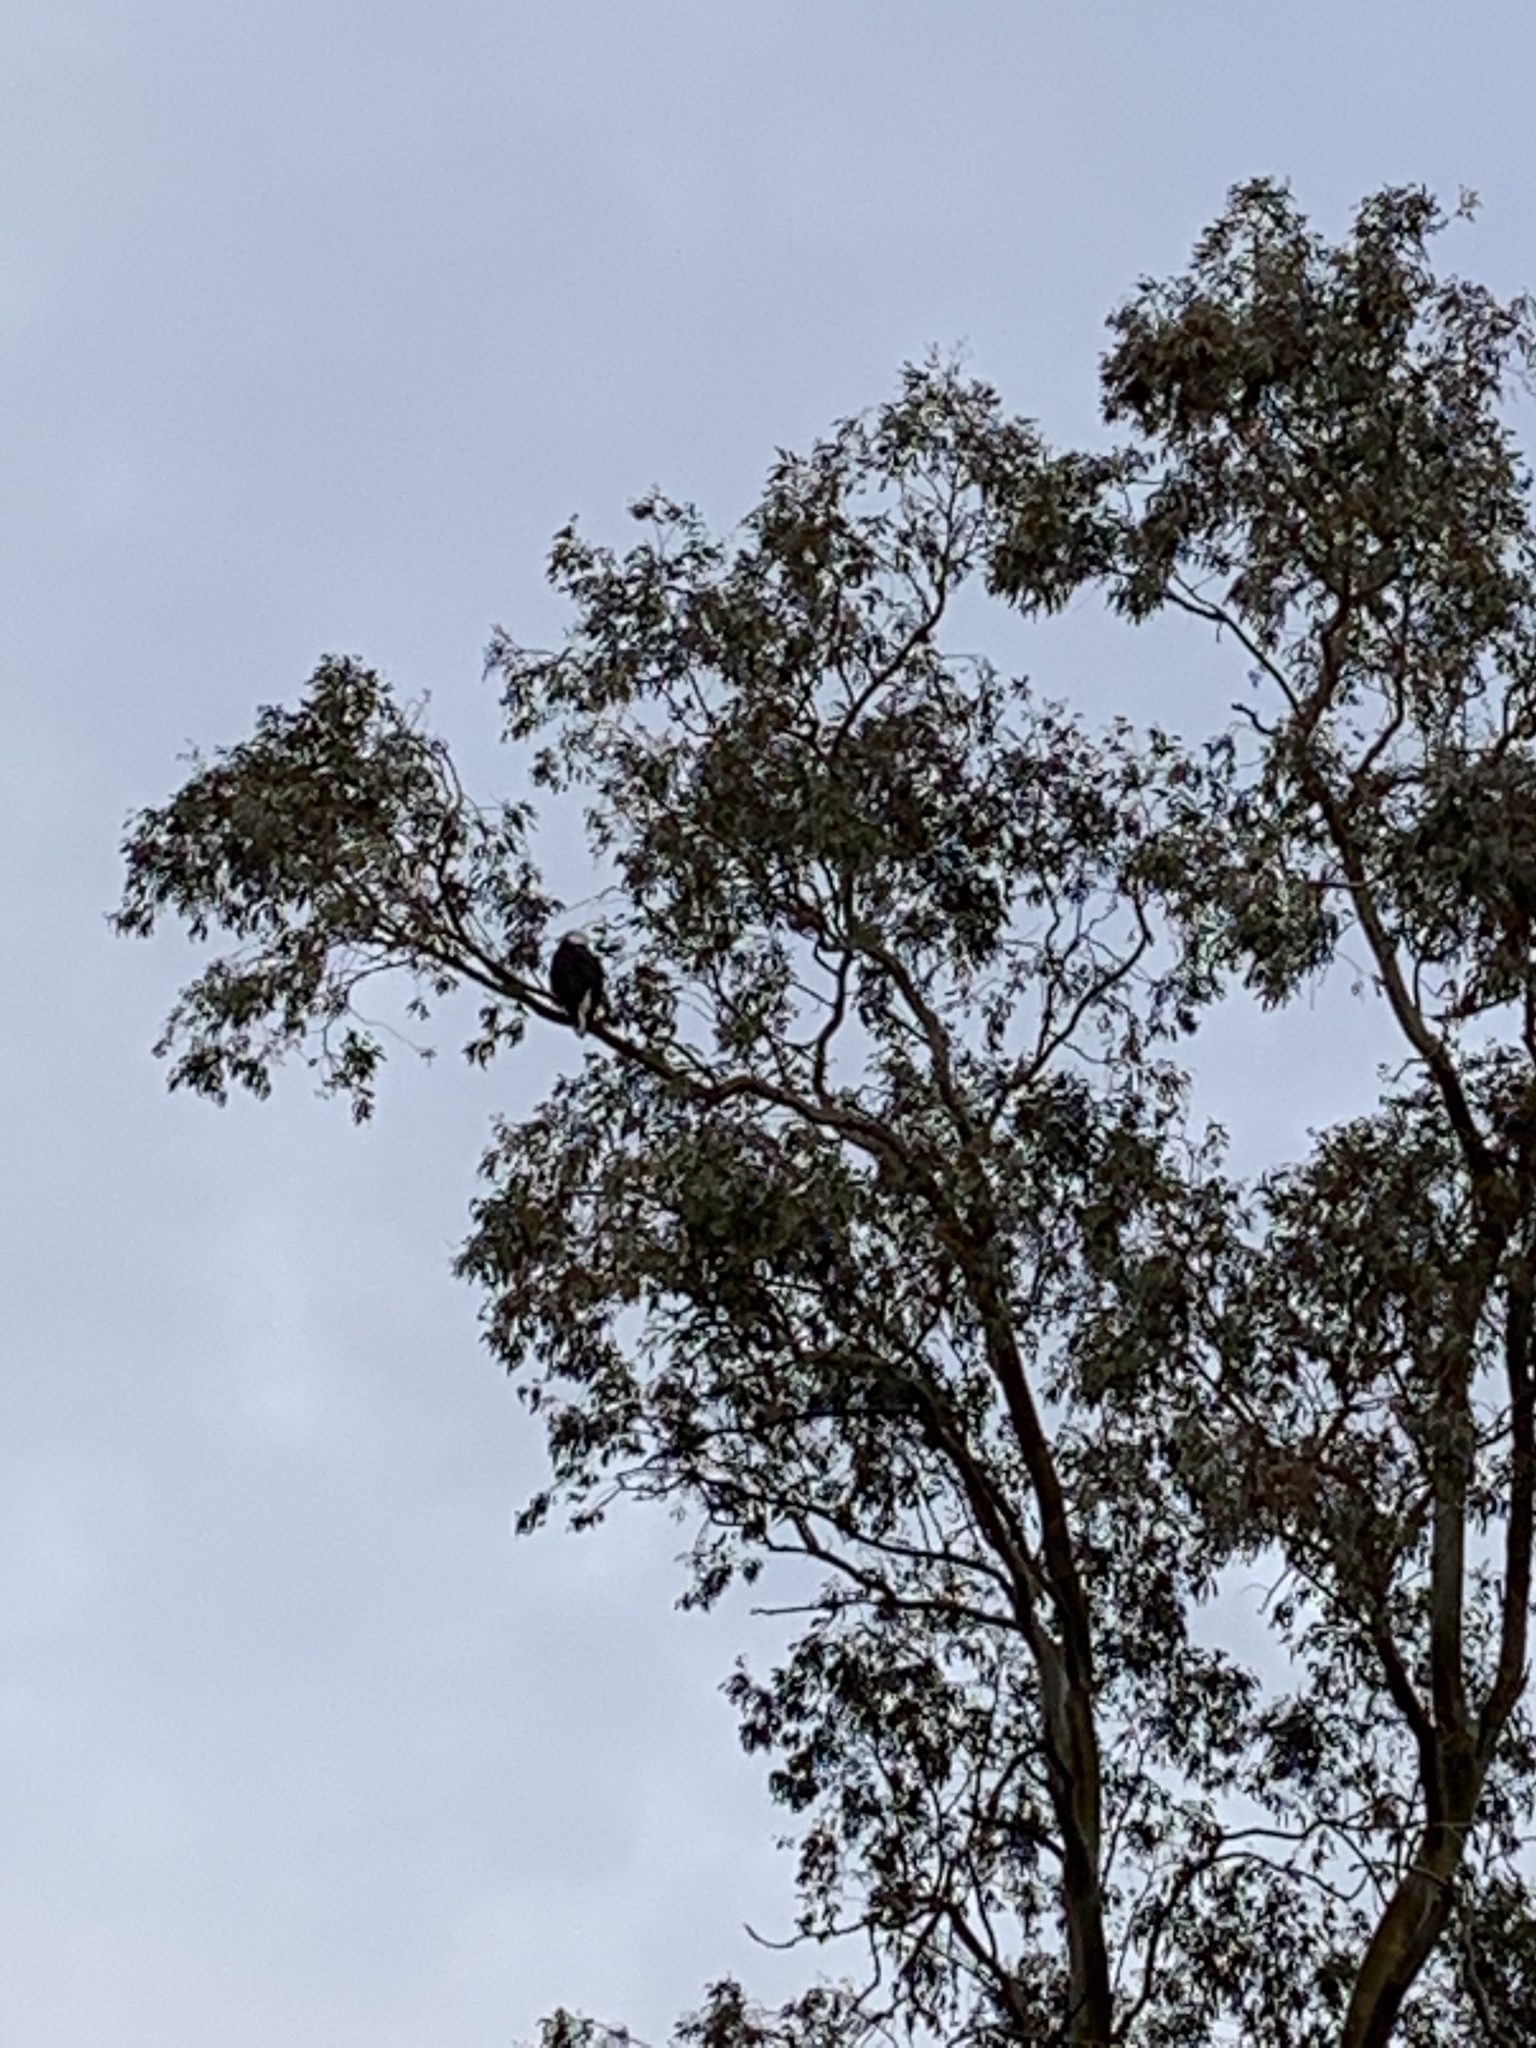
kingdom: Animalia
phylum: Chordata
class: Aves
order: Accipitriformes
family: Accipitridae
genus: Haliaeetus
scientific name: Haliaeetus leucocephalus
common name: Bald eagle
